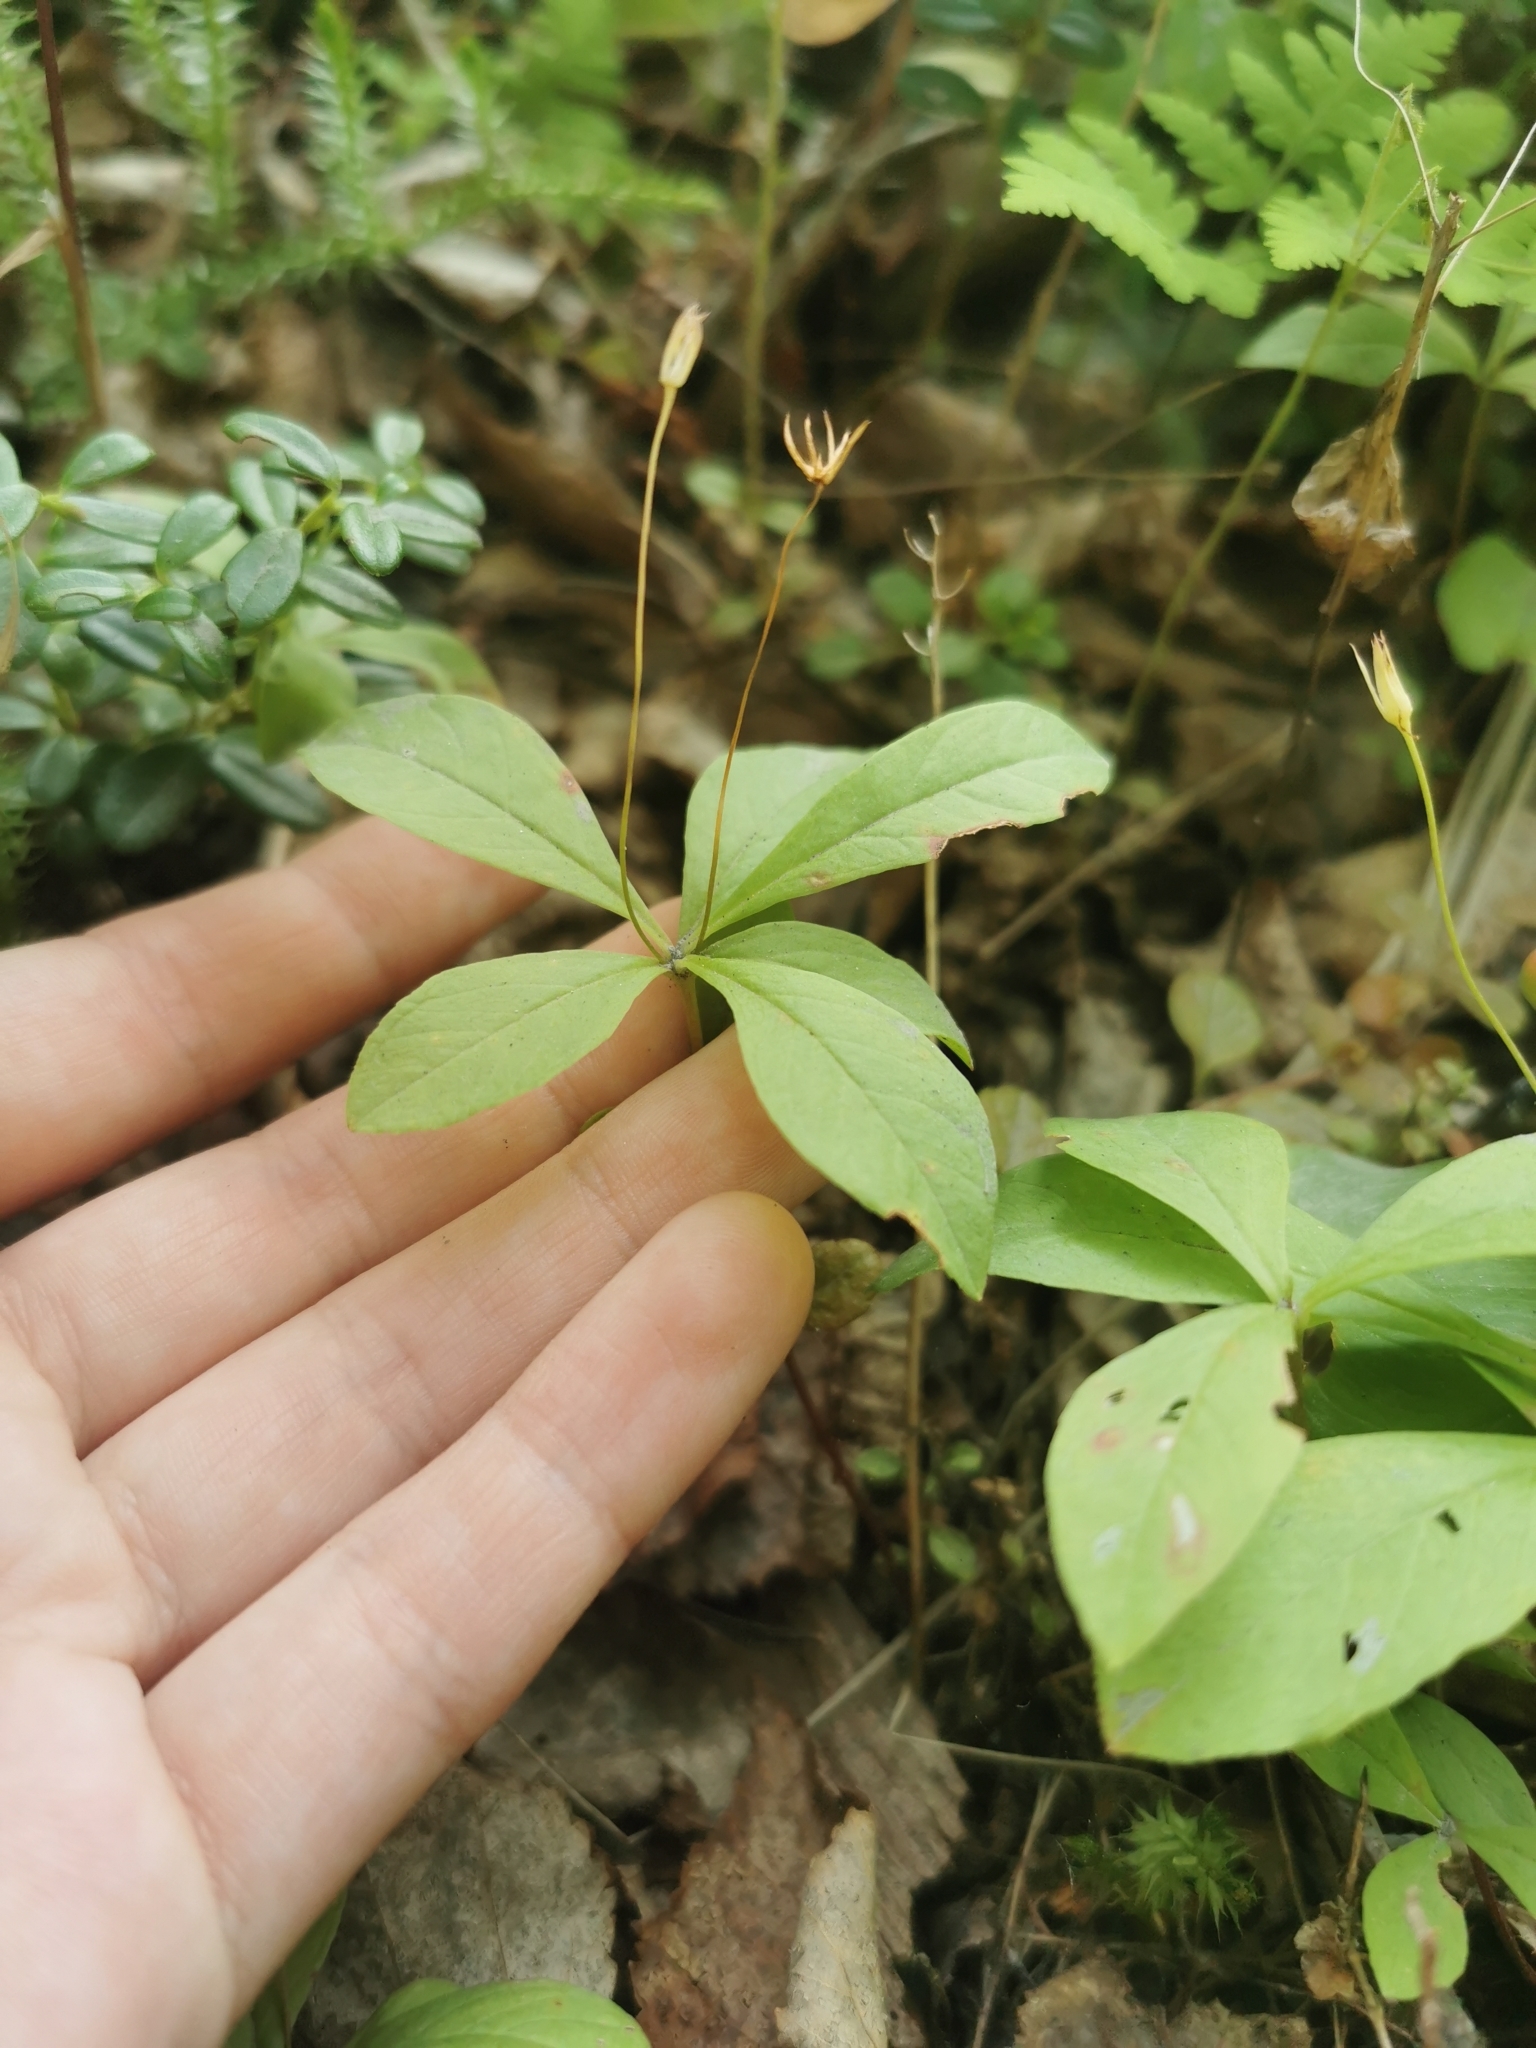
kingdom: Plantae
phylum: Tracheophyta
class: Magnoliopsida
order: Ericales
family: Primulaceae
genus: Lysimachia
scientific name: Lysimachia europaea
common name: Arctic starflower
